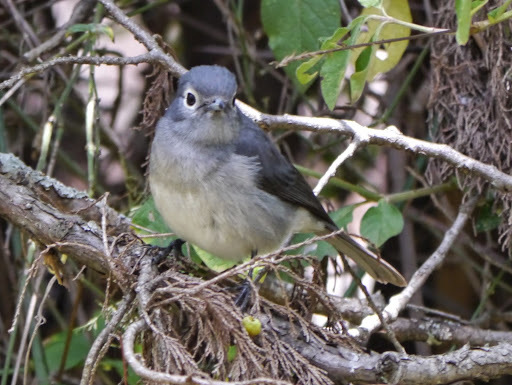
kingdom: Animalia
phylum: Chordata
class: Aves
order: Passeriformes
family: Muscicapidae
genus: Dioptrornis
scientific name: Dioptrornis fischeri
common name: White-eyed slaty flycatcher
